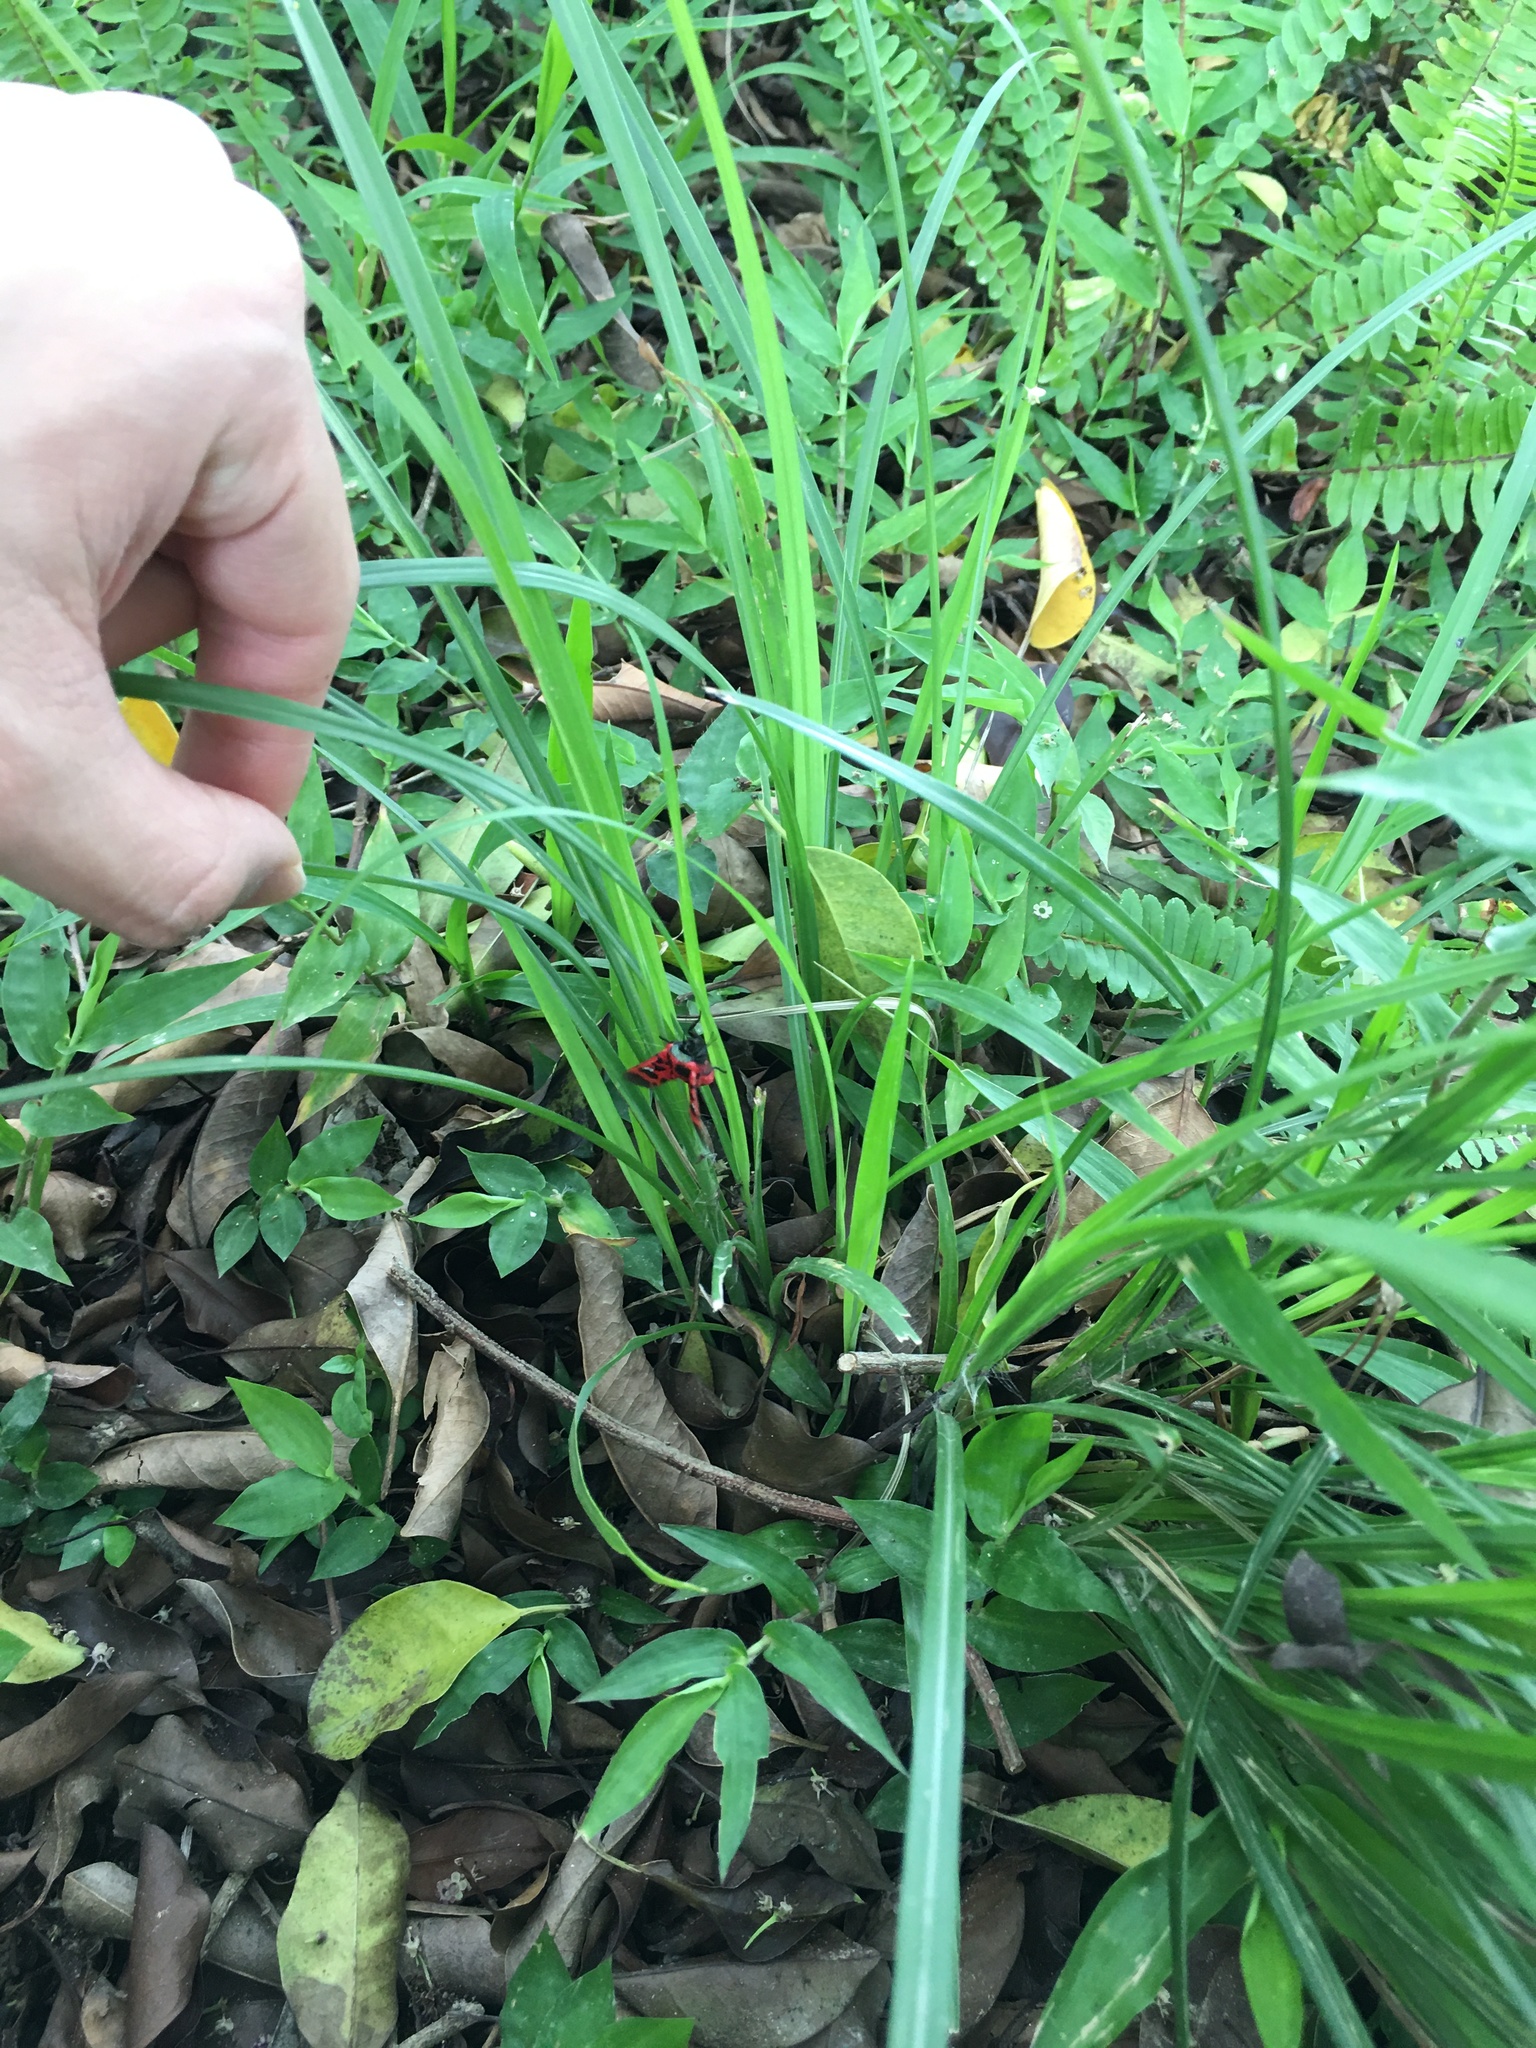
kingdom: Animalia
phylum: Arthropoda
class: Insecta
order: Lepidoptera
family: Thyrididae
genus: Glanycus
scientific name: Glanycus insolitus
